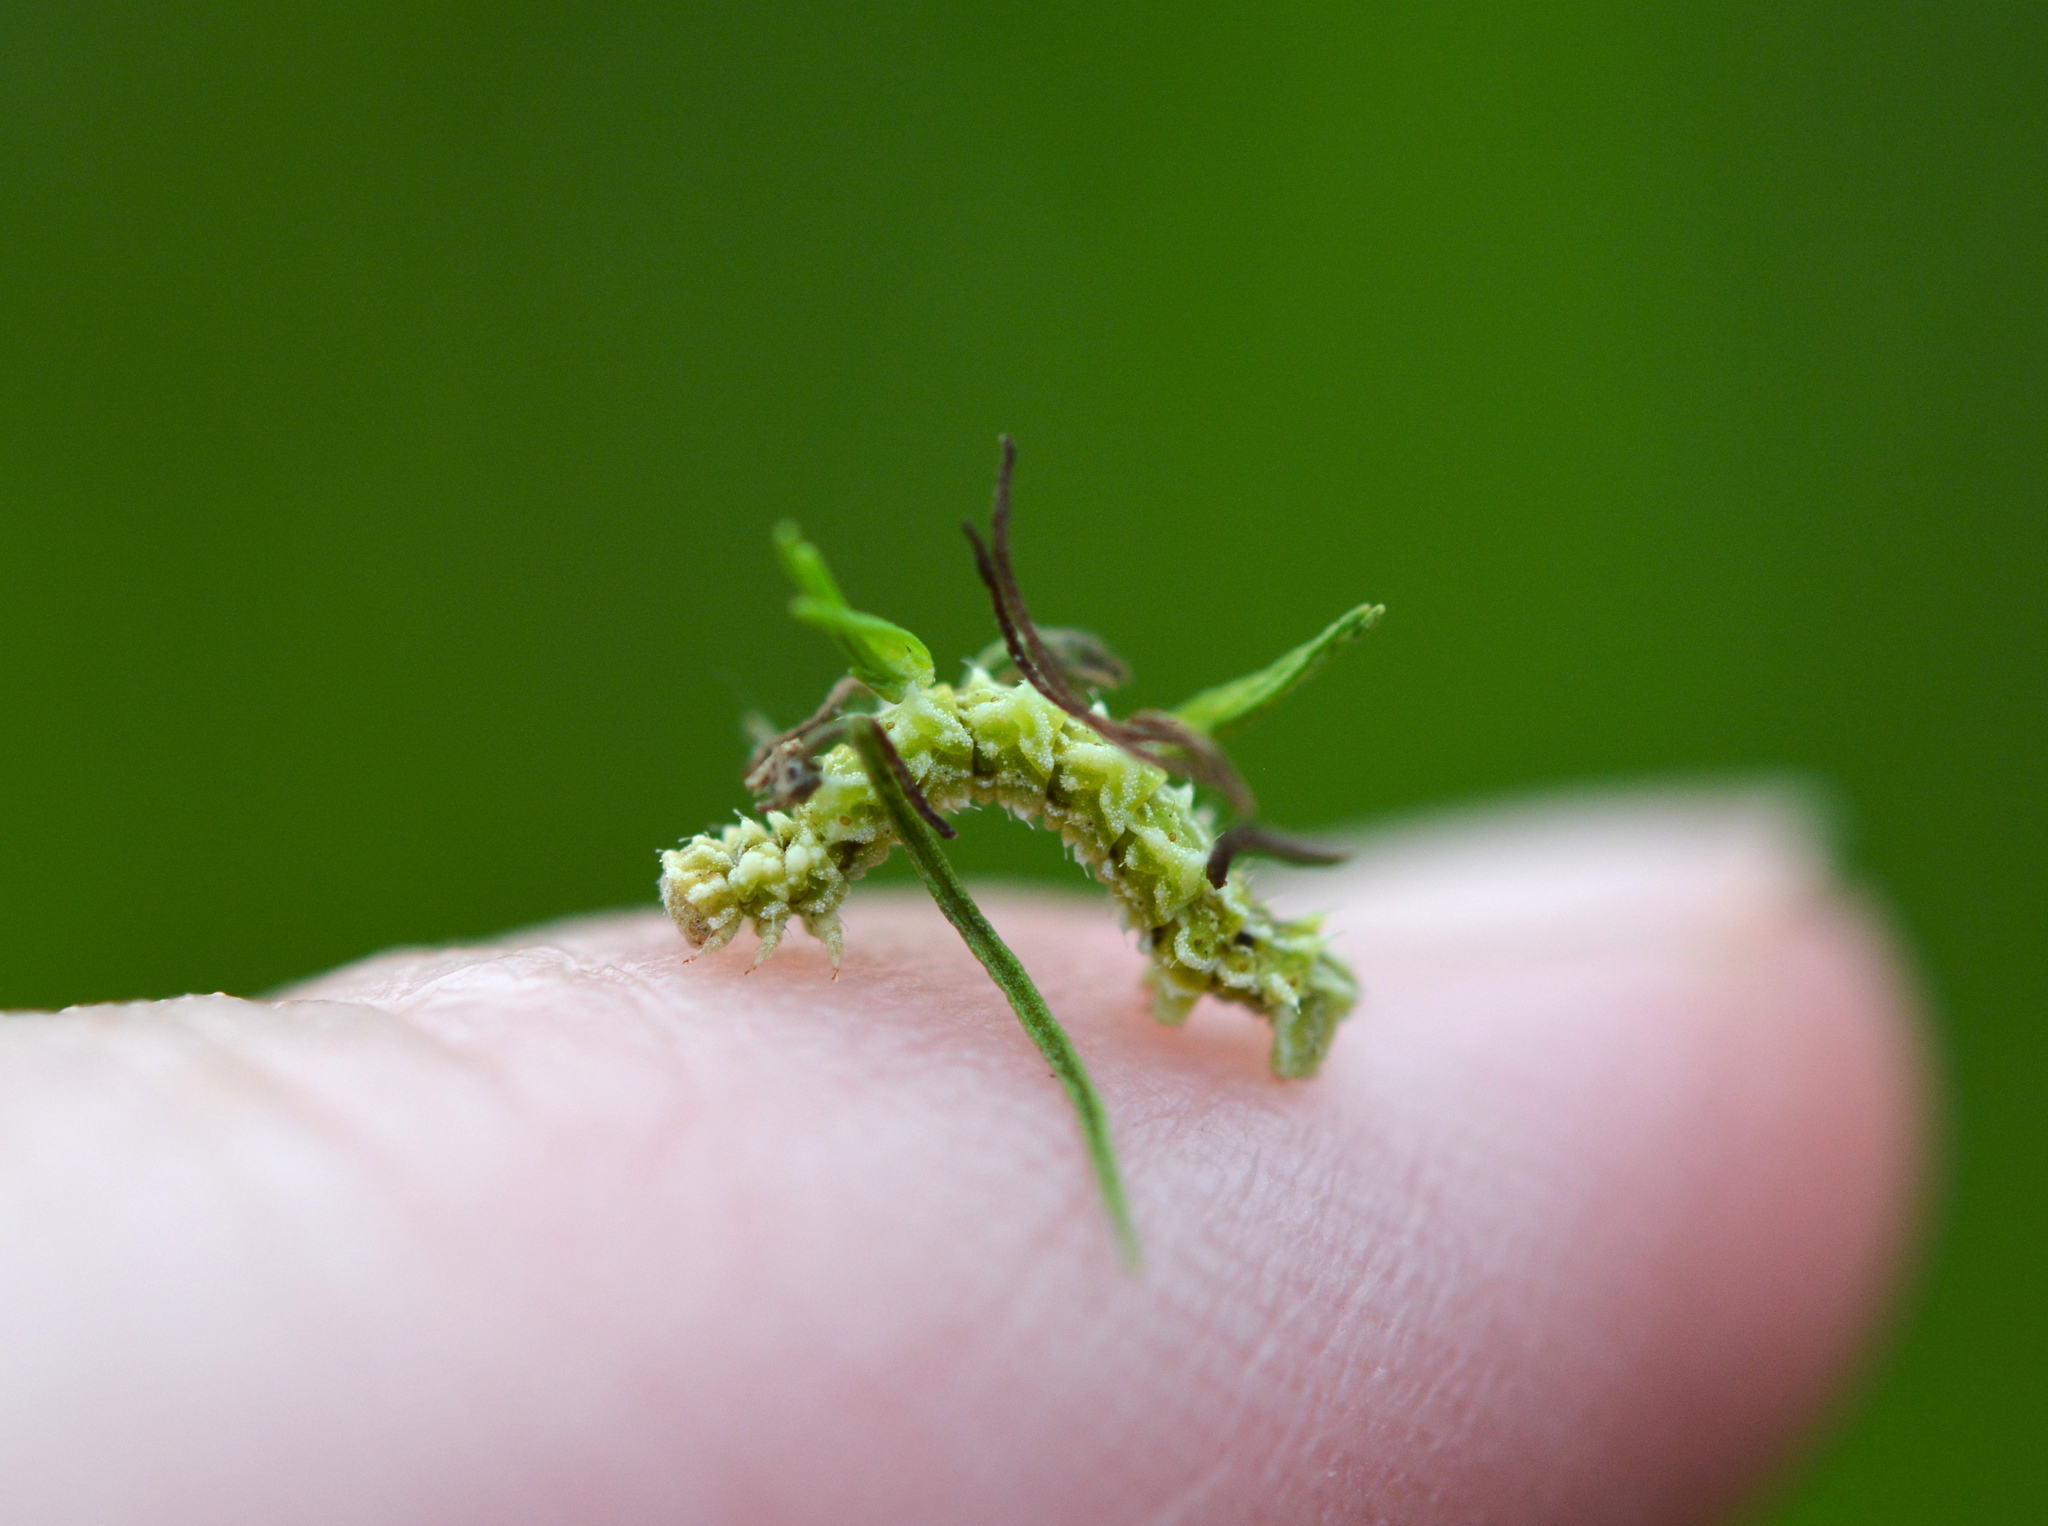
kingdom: Animalia
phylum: Arthropoda
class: Insecta
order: Lepidoptera
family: Geometridae
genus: Synchlora
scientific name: Synchlora aerata
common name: Wavy-lined emerald
